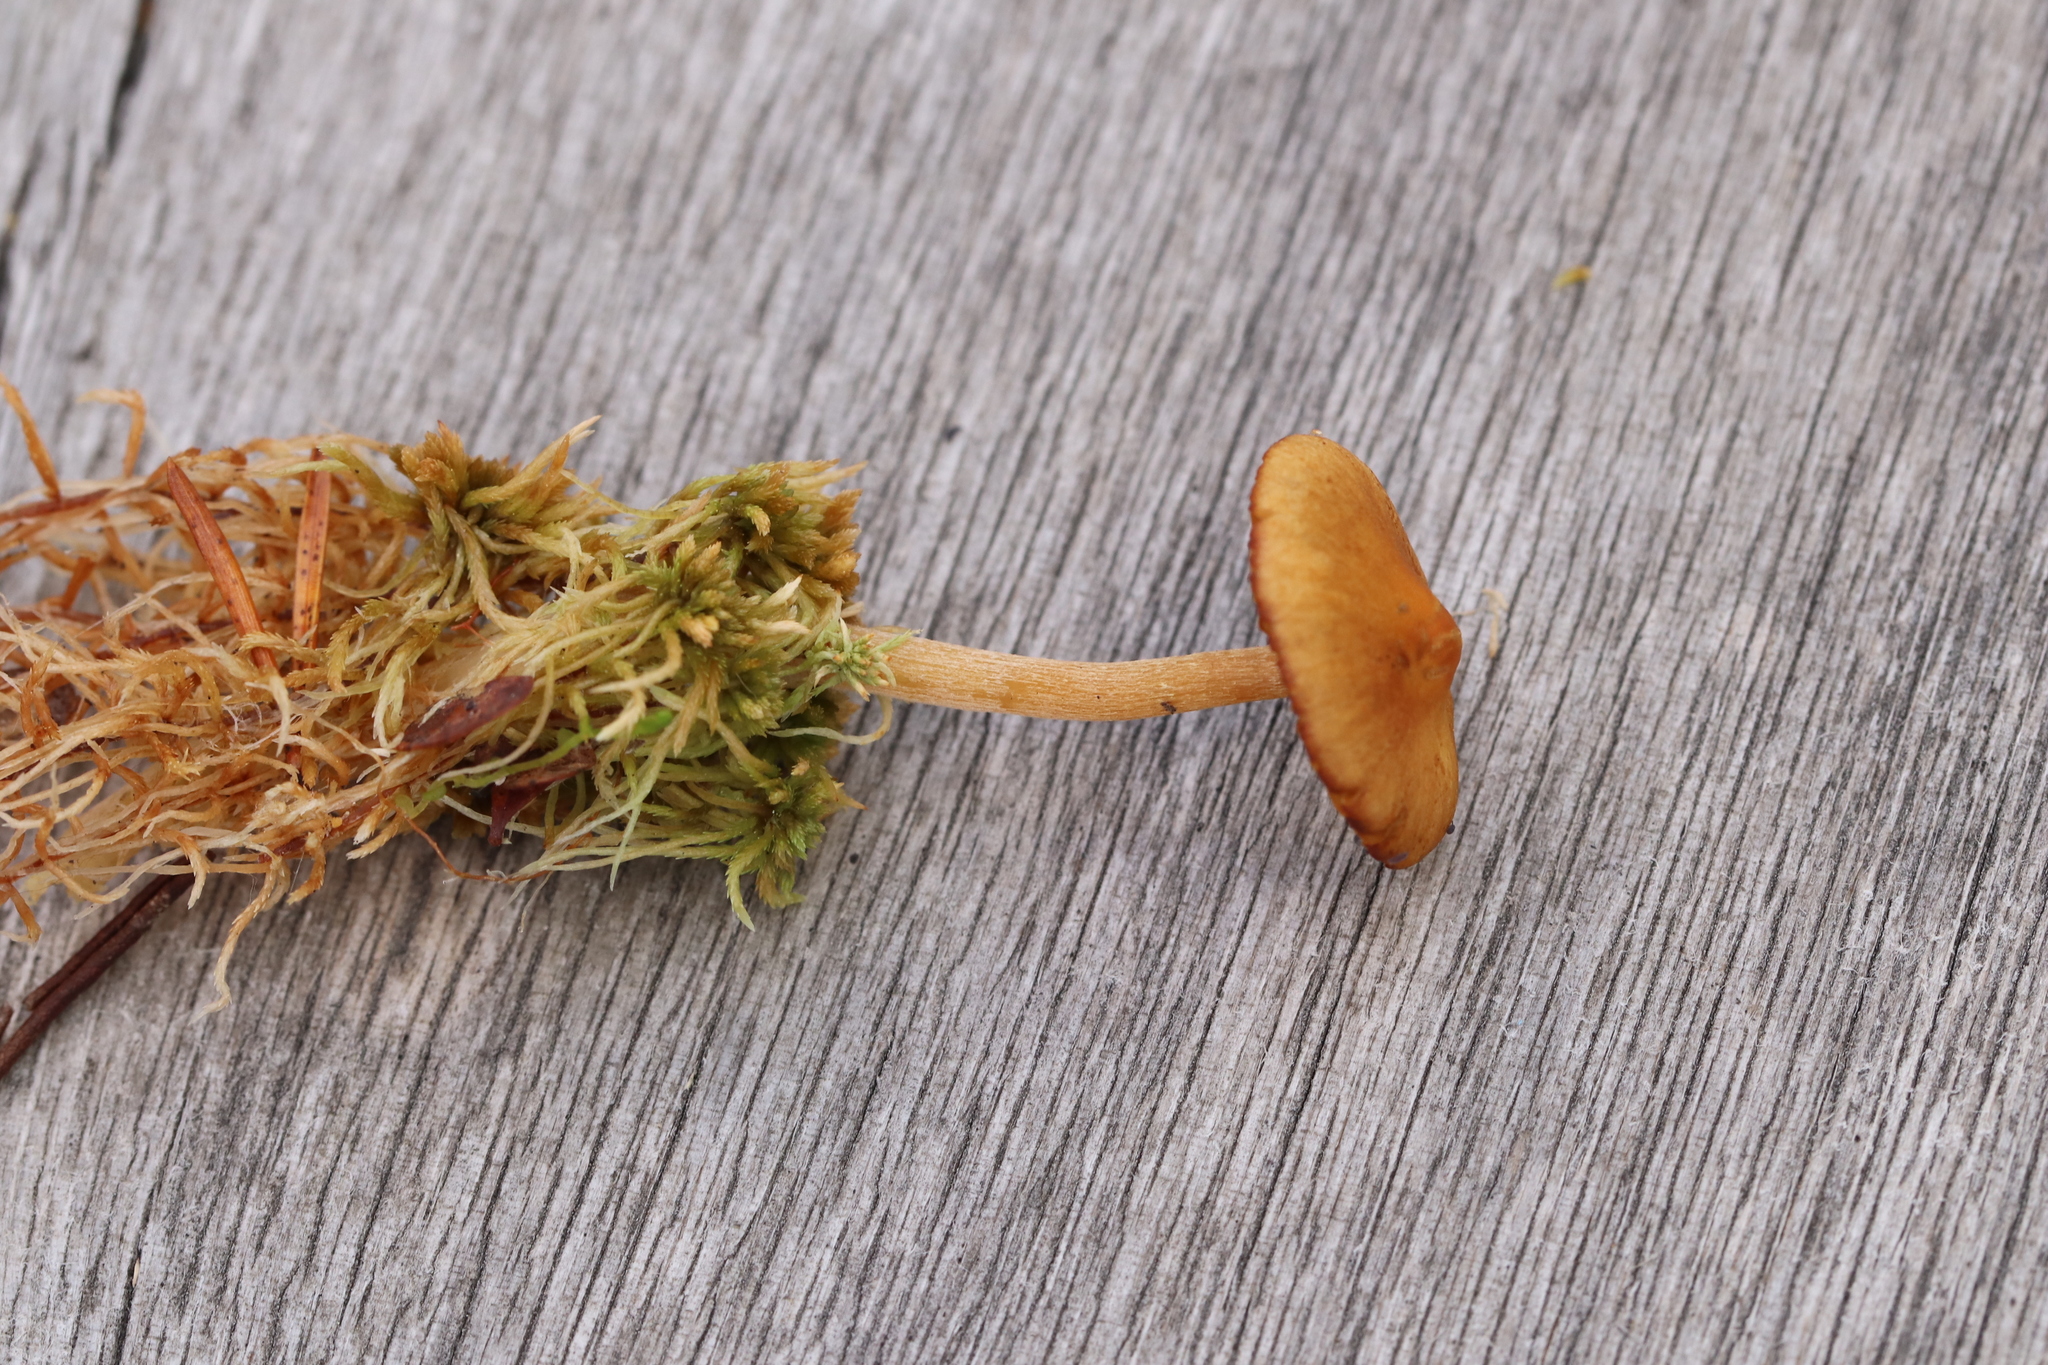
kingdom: Fungi
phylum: Basidiomycota
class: Agaricomycetes
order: Agaricales
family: Hymenogastraceae
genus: Galerina
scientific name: Galerina tibiicystis
